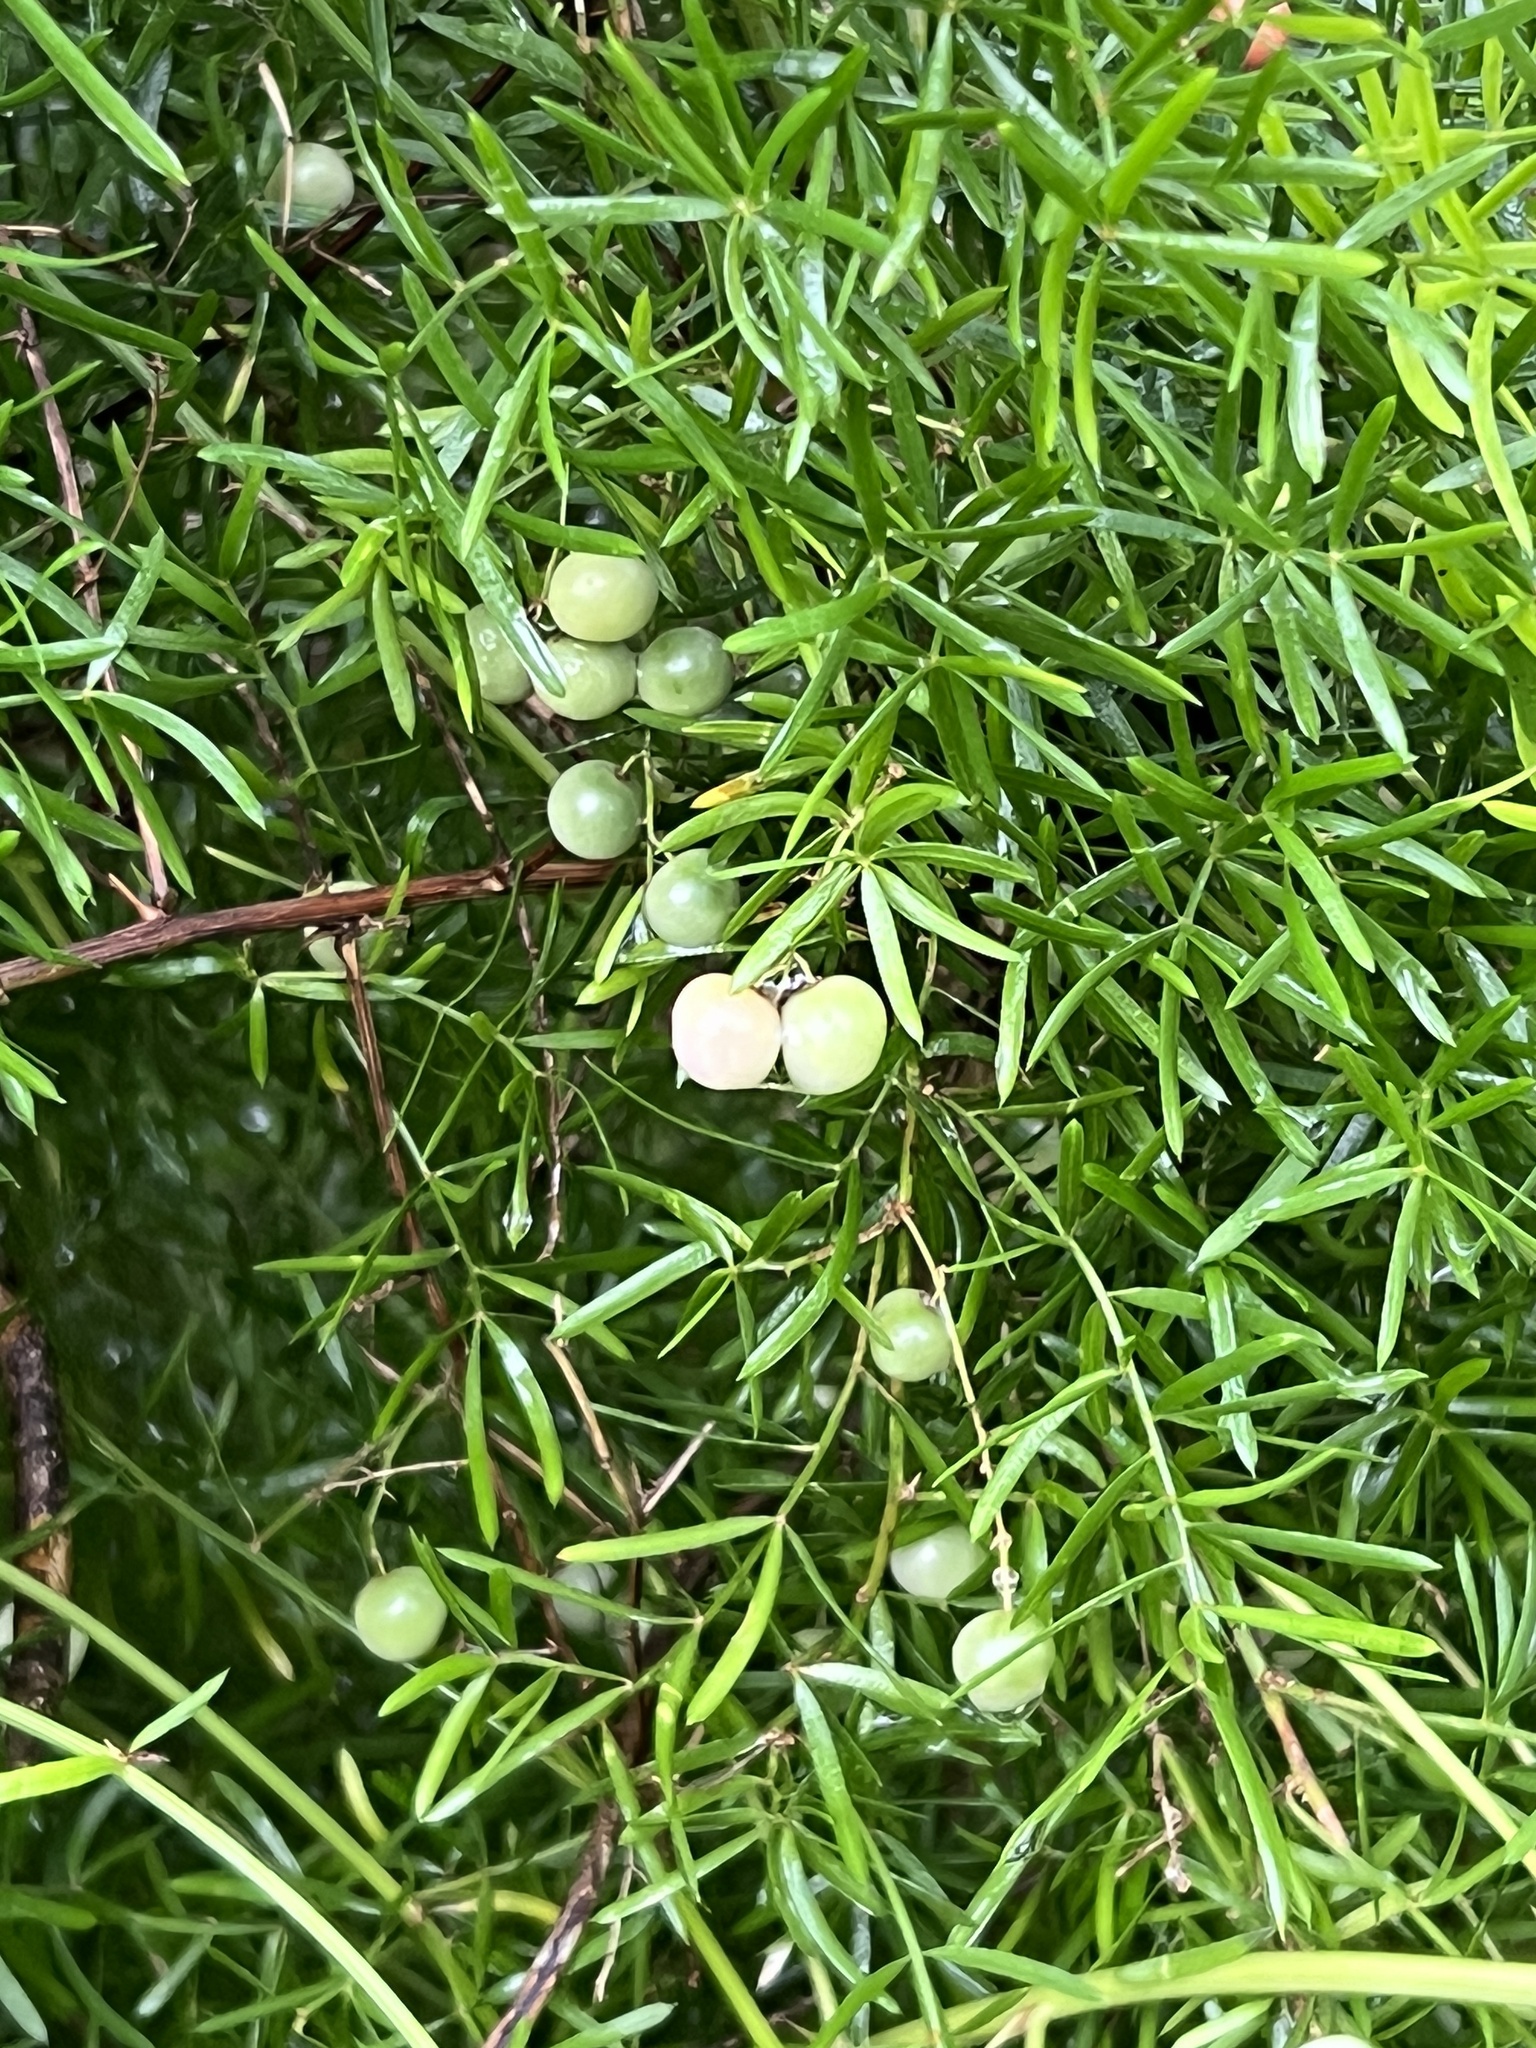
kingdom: Plantae
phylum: Tracheophyta
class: Liliopsida
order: Asparagales
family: Asparagaceae
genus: Asparagus
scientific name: Asparagus aethiopicus
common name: Sprenger's asparagus fern
